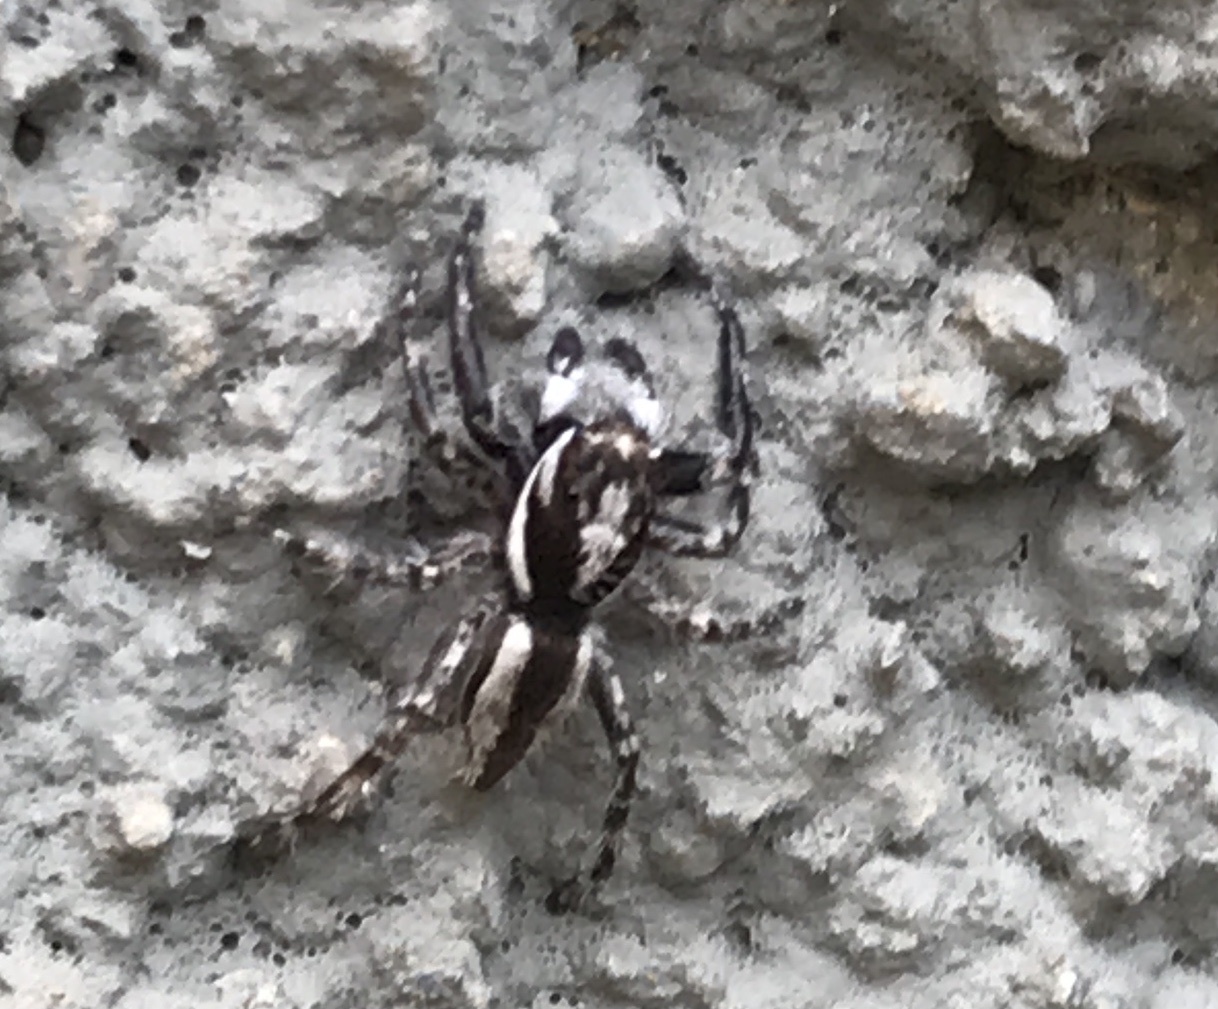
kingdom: Animalia
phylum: Arthropoda
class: Arachnida
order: Araneae
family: Salticidae
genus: Menemerus
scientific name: Menemerus bivittatus
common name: Gray wall jumper
